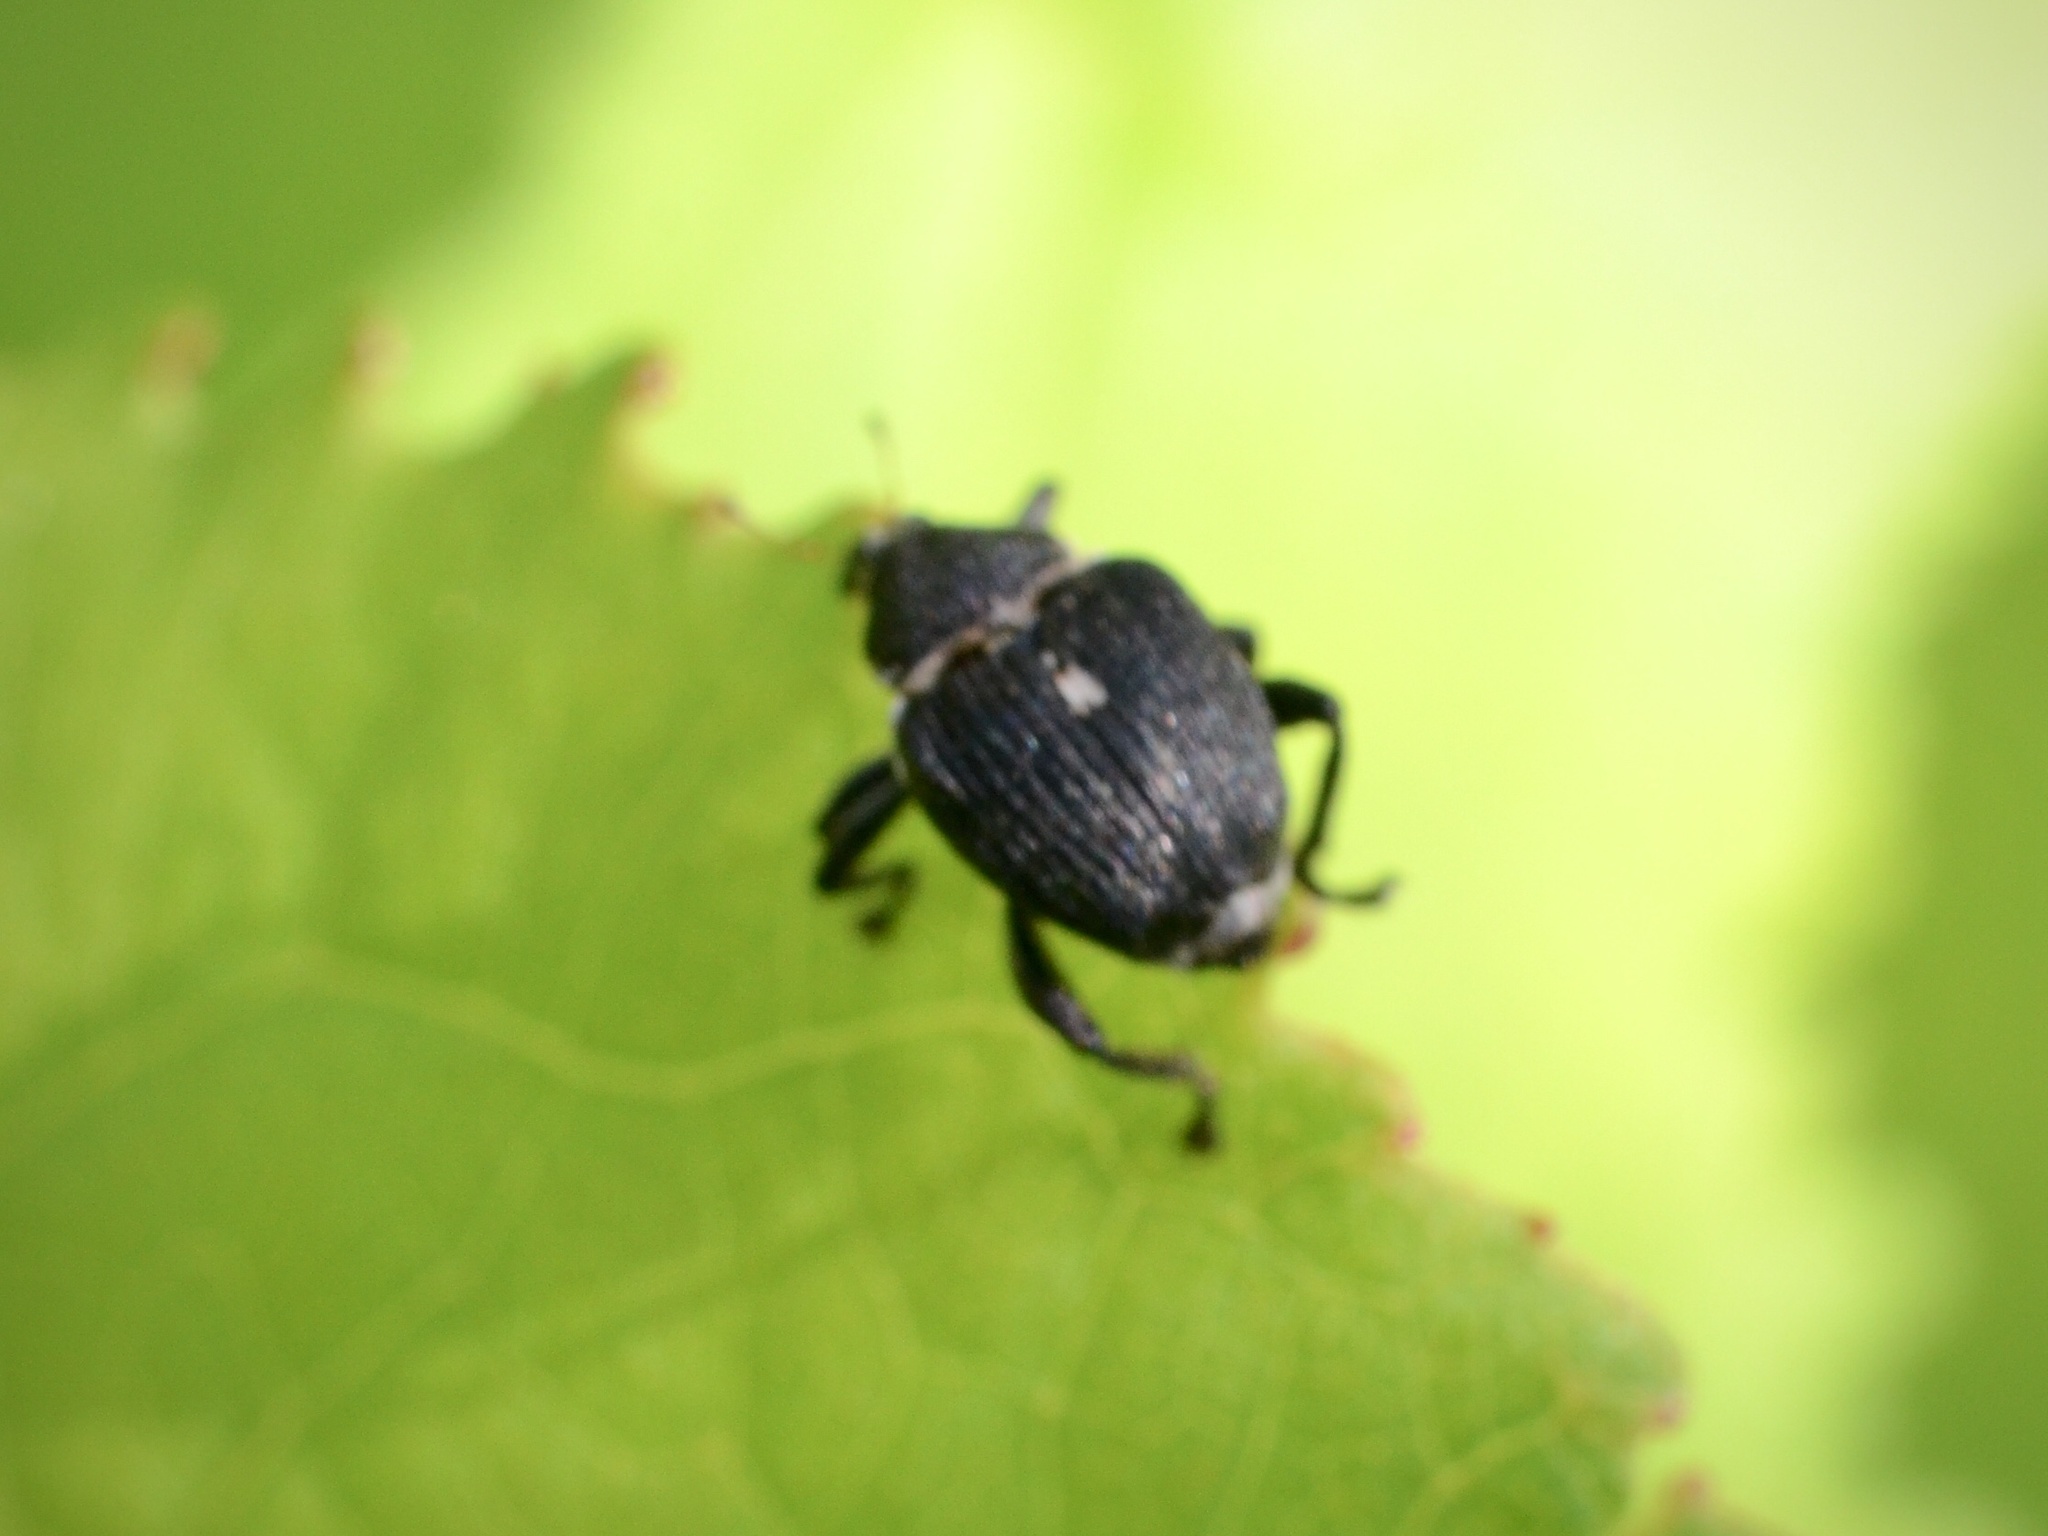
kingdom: Animalia
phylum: Arthropoda
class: Insecta
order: Coleoptera
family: Curculionidae
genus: Mononychus
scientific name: Mononychus punctumalbum
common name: Iris weevil
